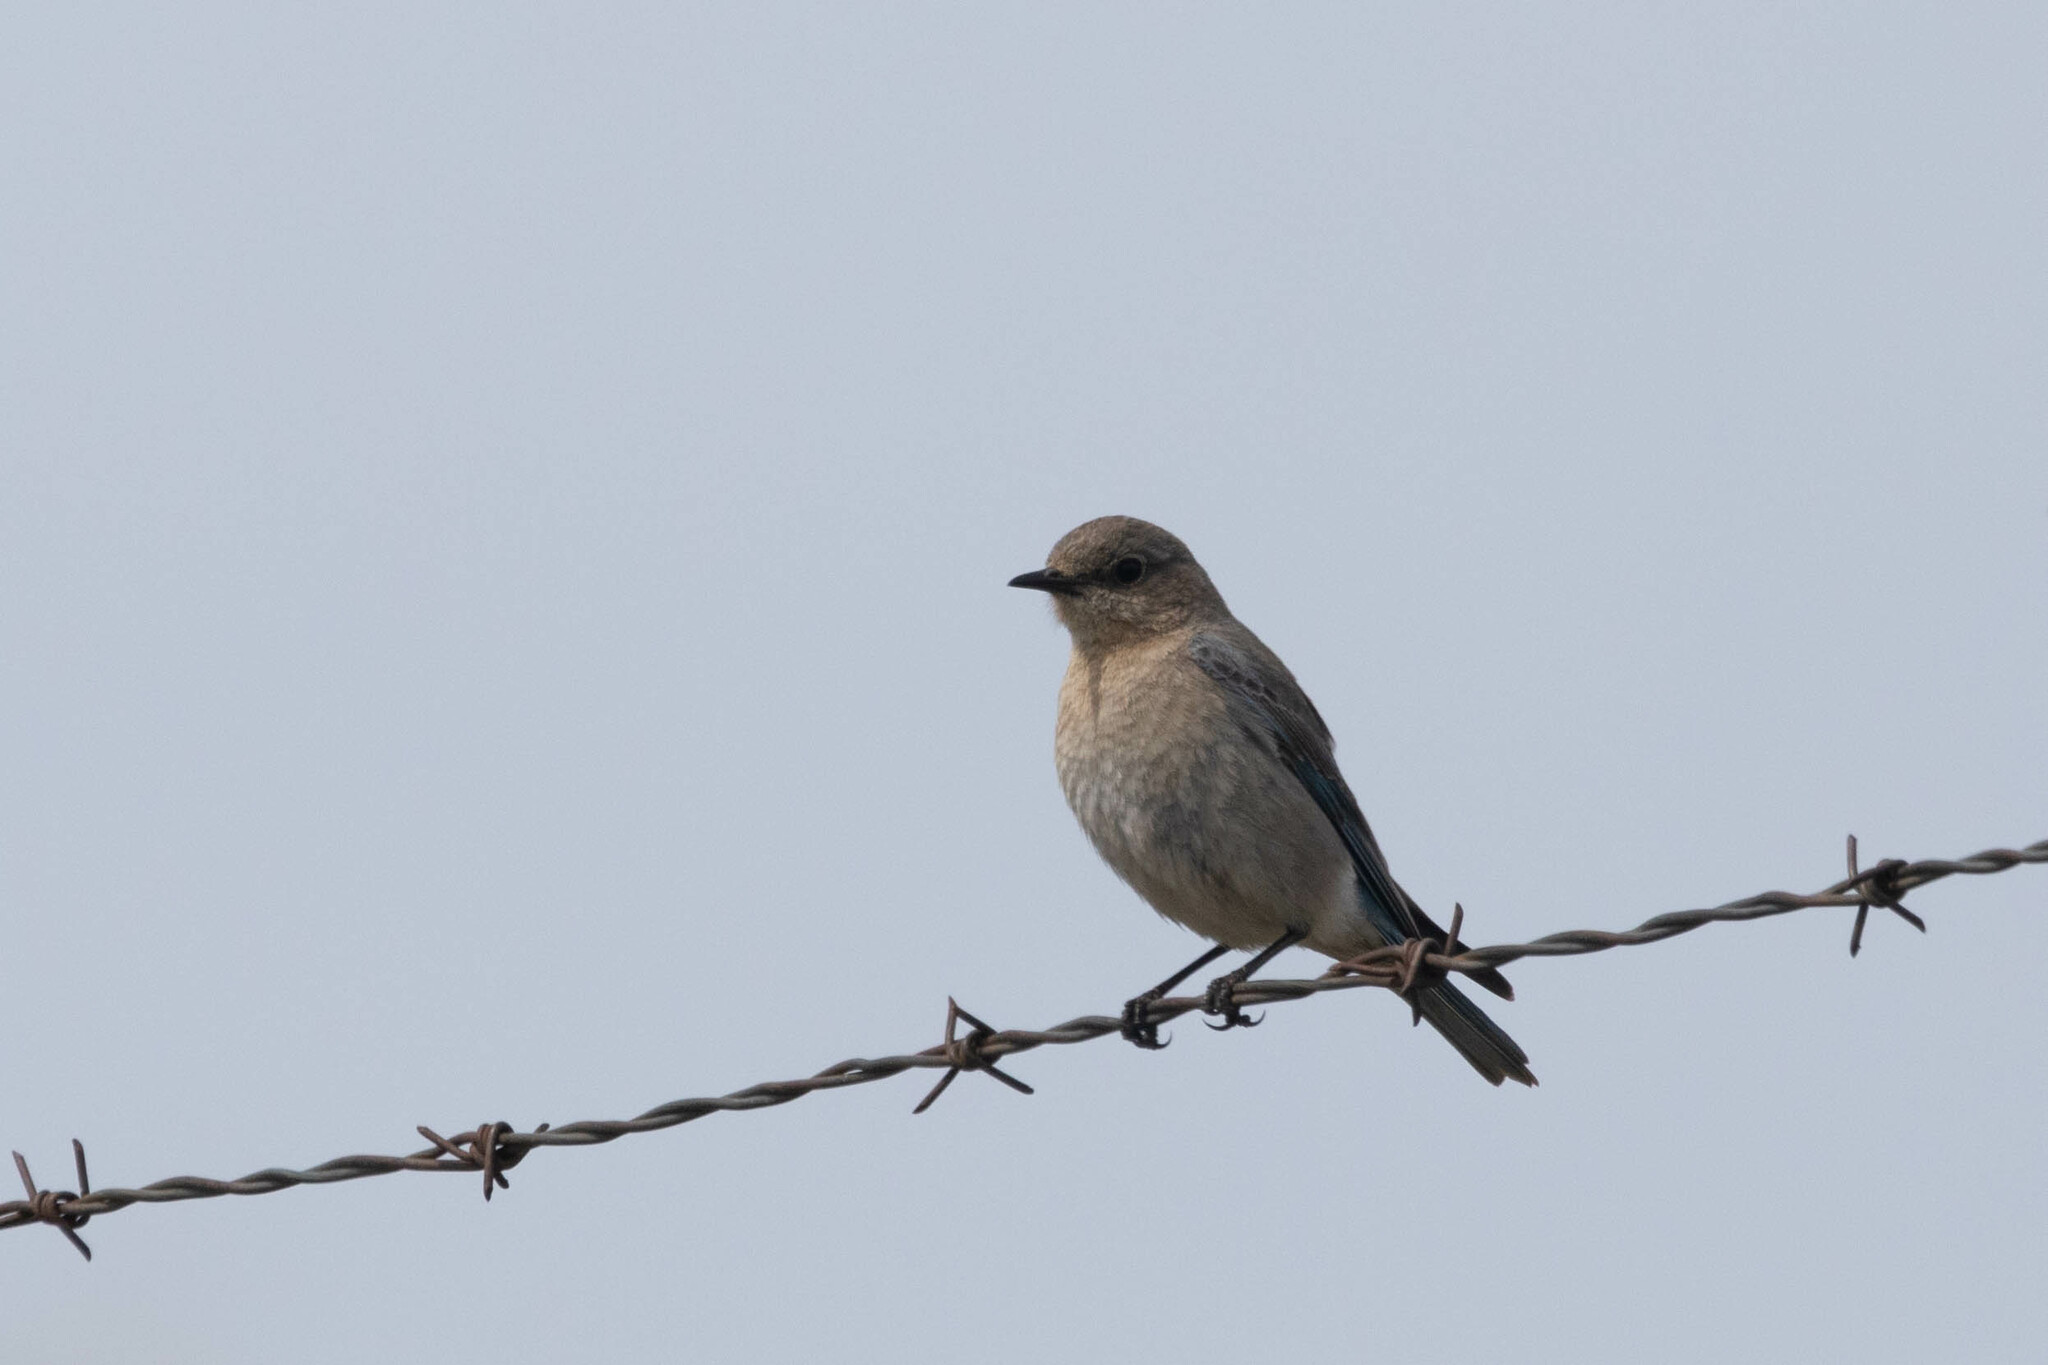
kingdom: Animalia
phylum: Chordata
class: Aves
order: Passeriformes
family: Turdidae
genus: Sialia
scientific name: Sialia currucoides
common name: Mountain bluebird
